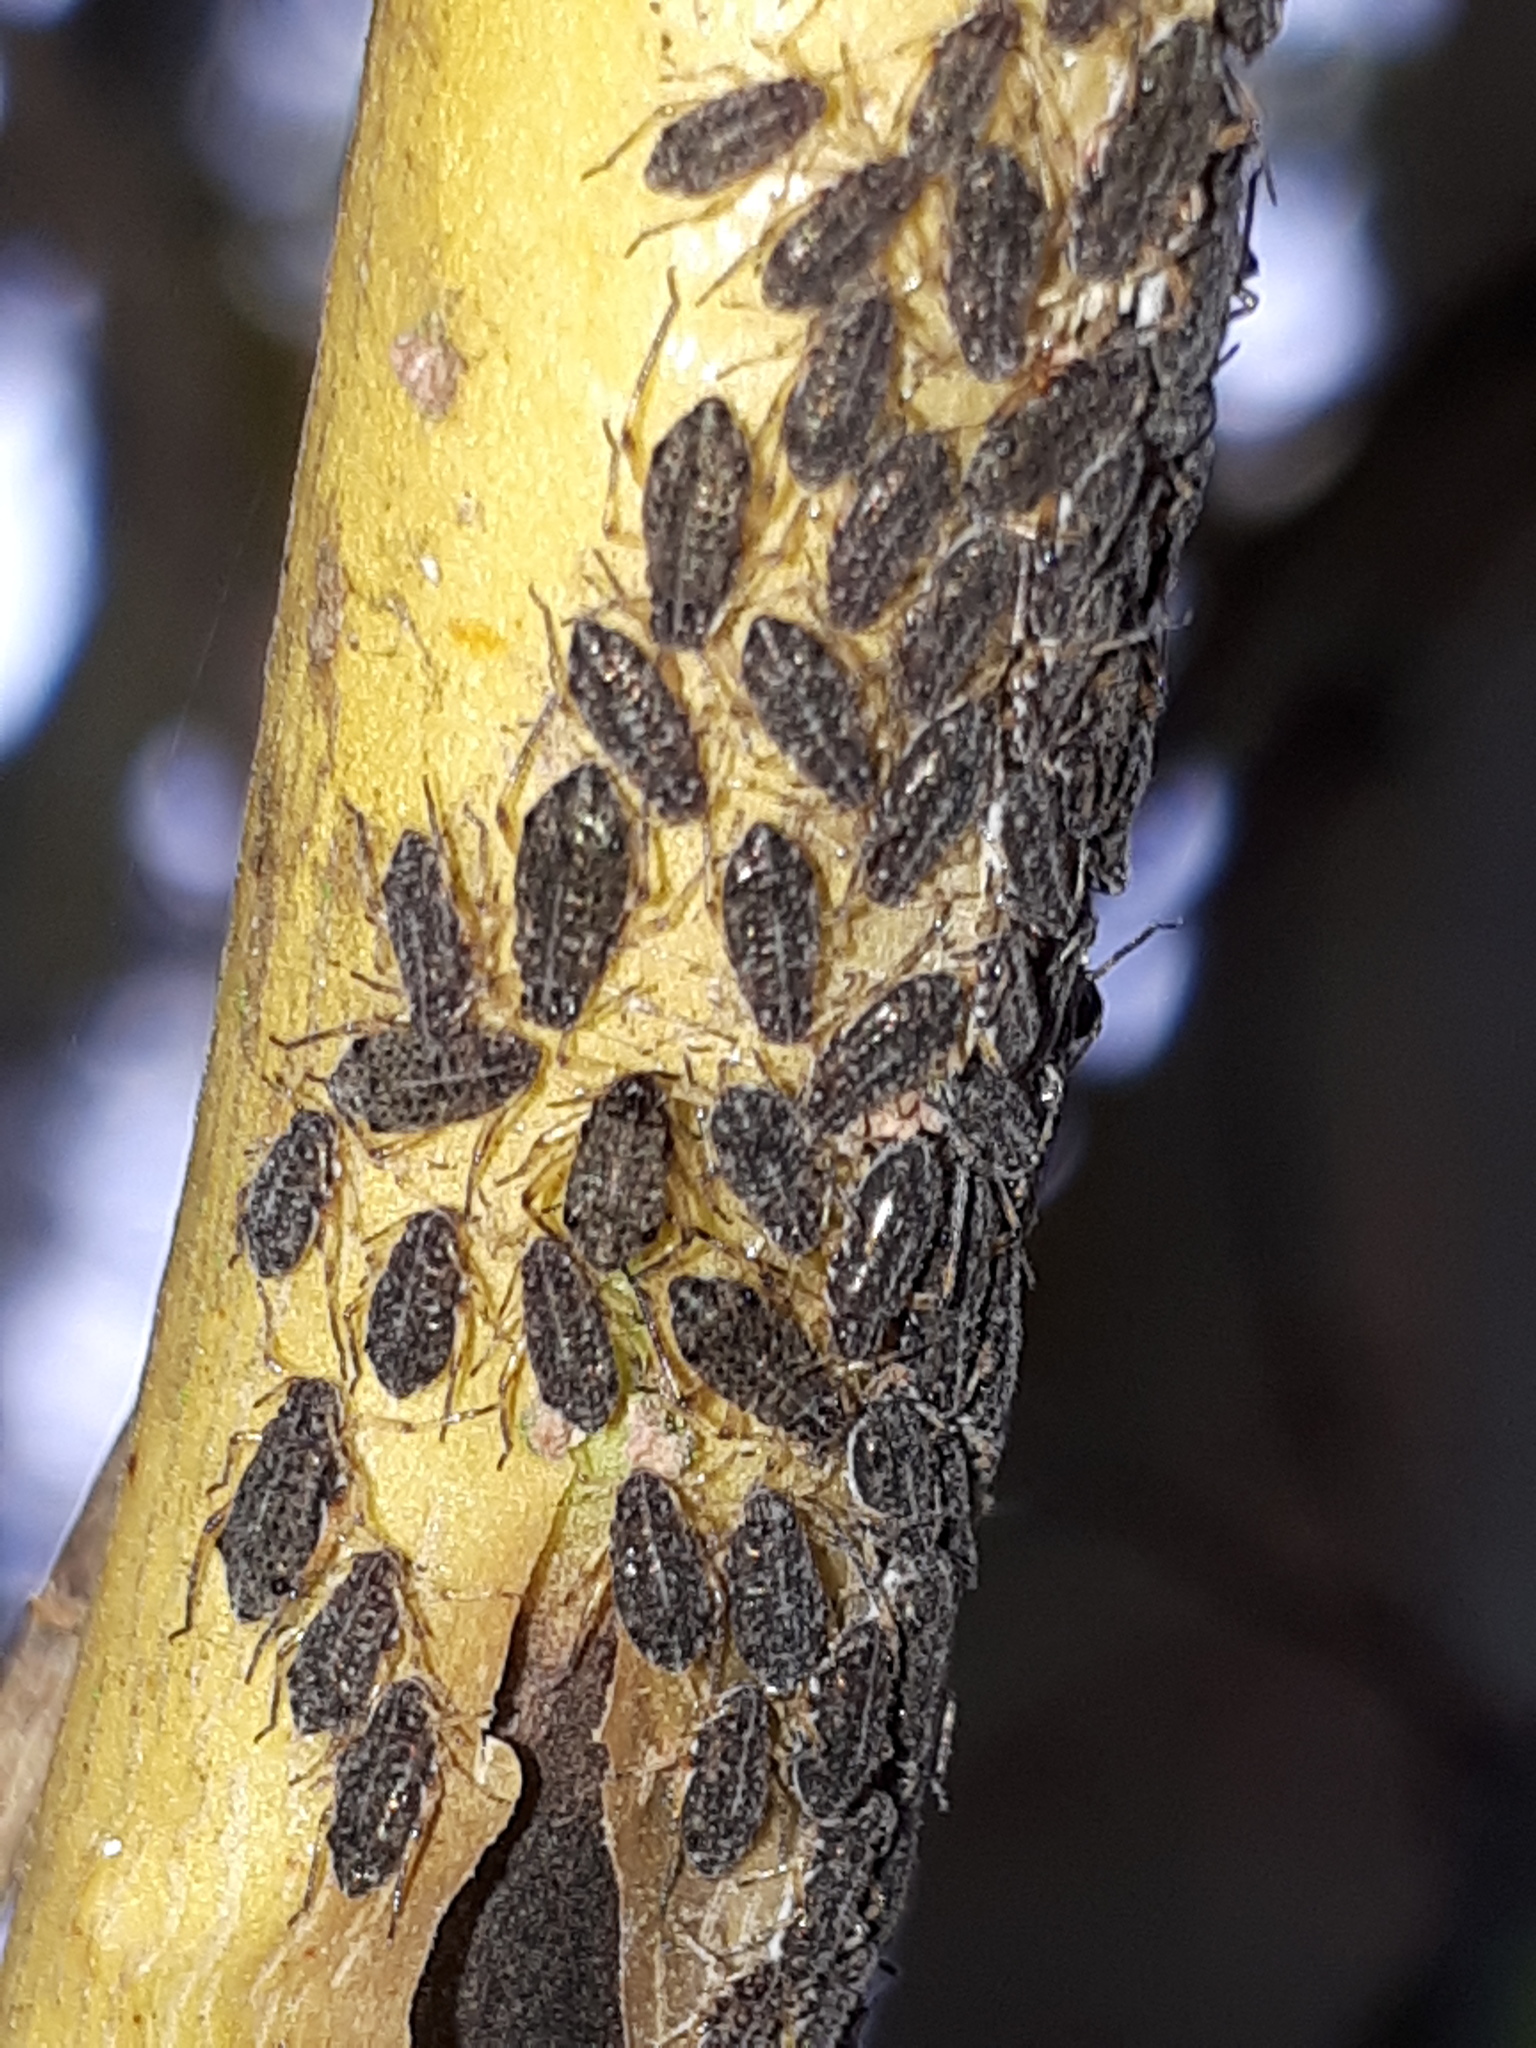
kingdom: Animalia
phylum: Arthropoda
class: Insecta
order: Hemiptera
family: Aphididae
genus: Tuberolachnus
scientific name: Tuberolachnus salignus
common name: Giant willow aphid
